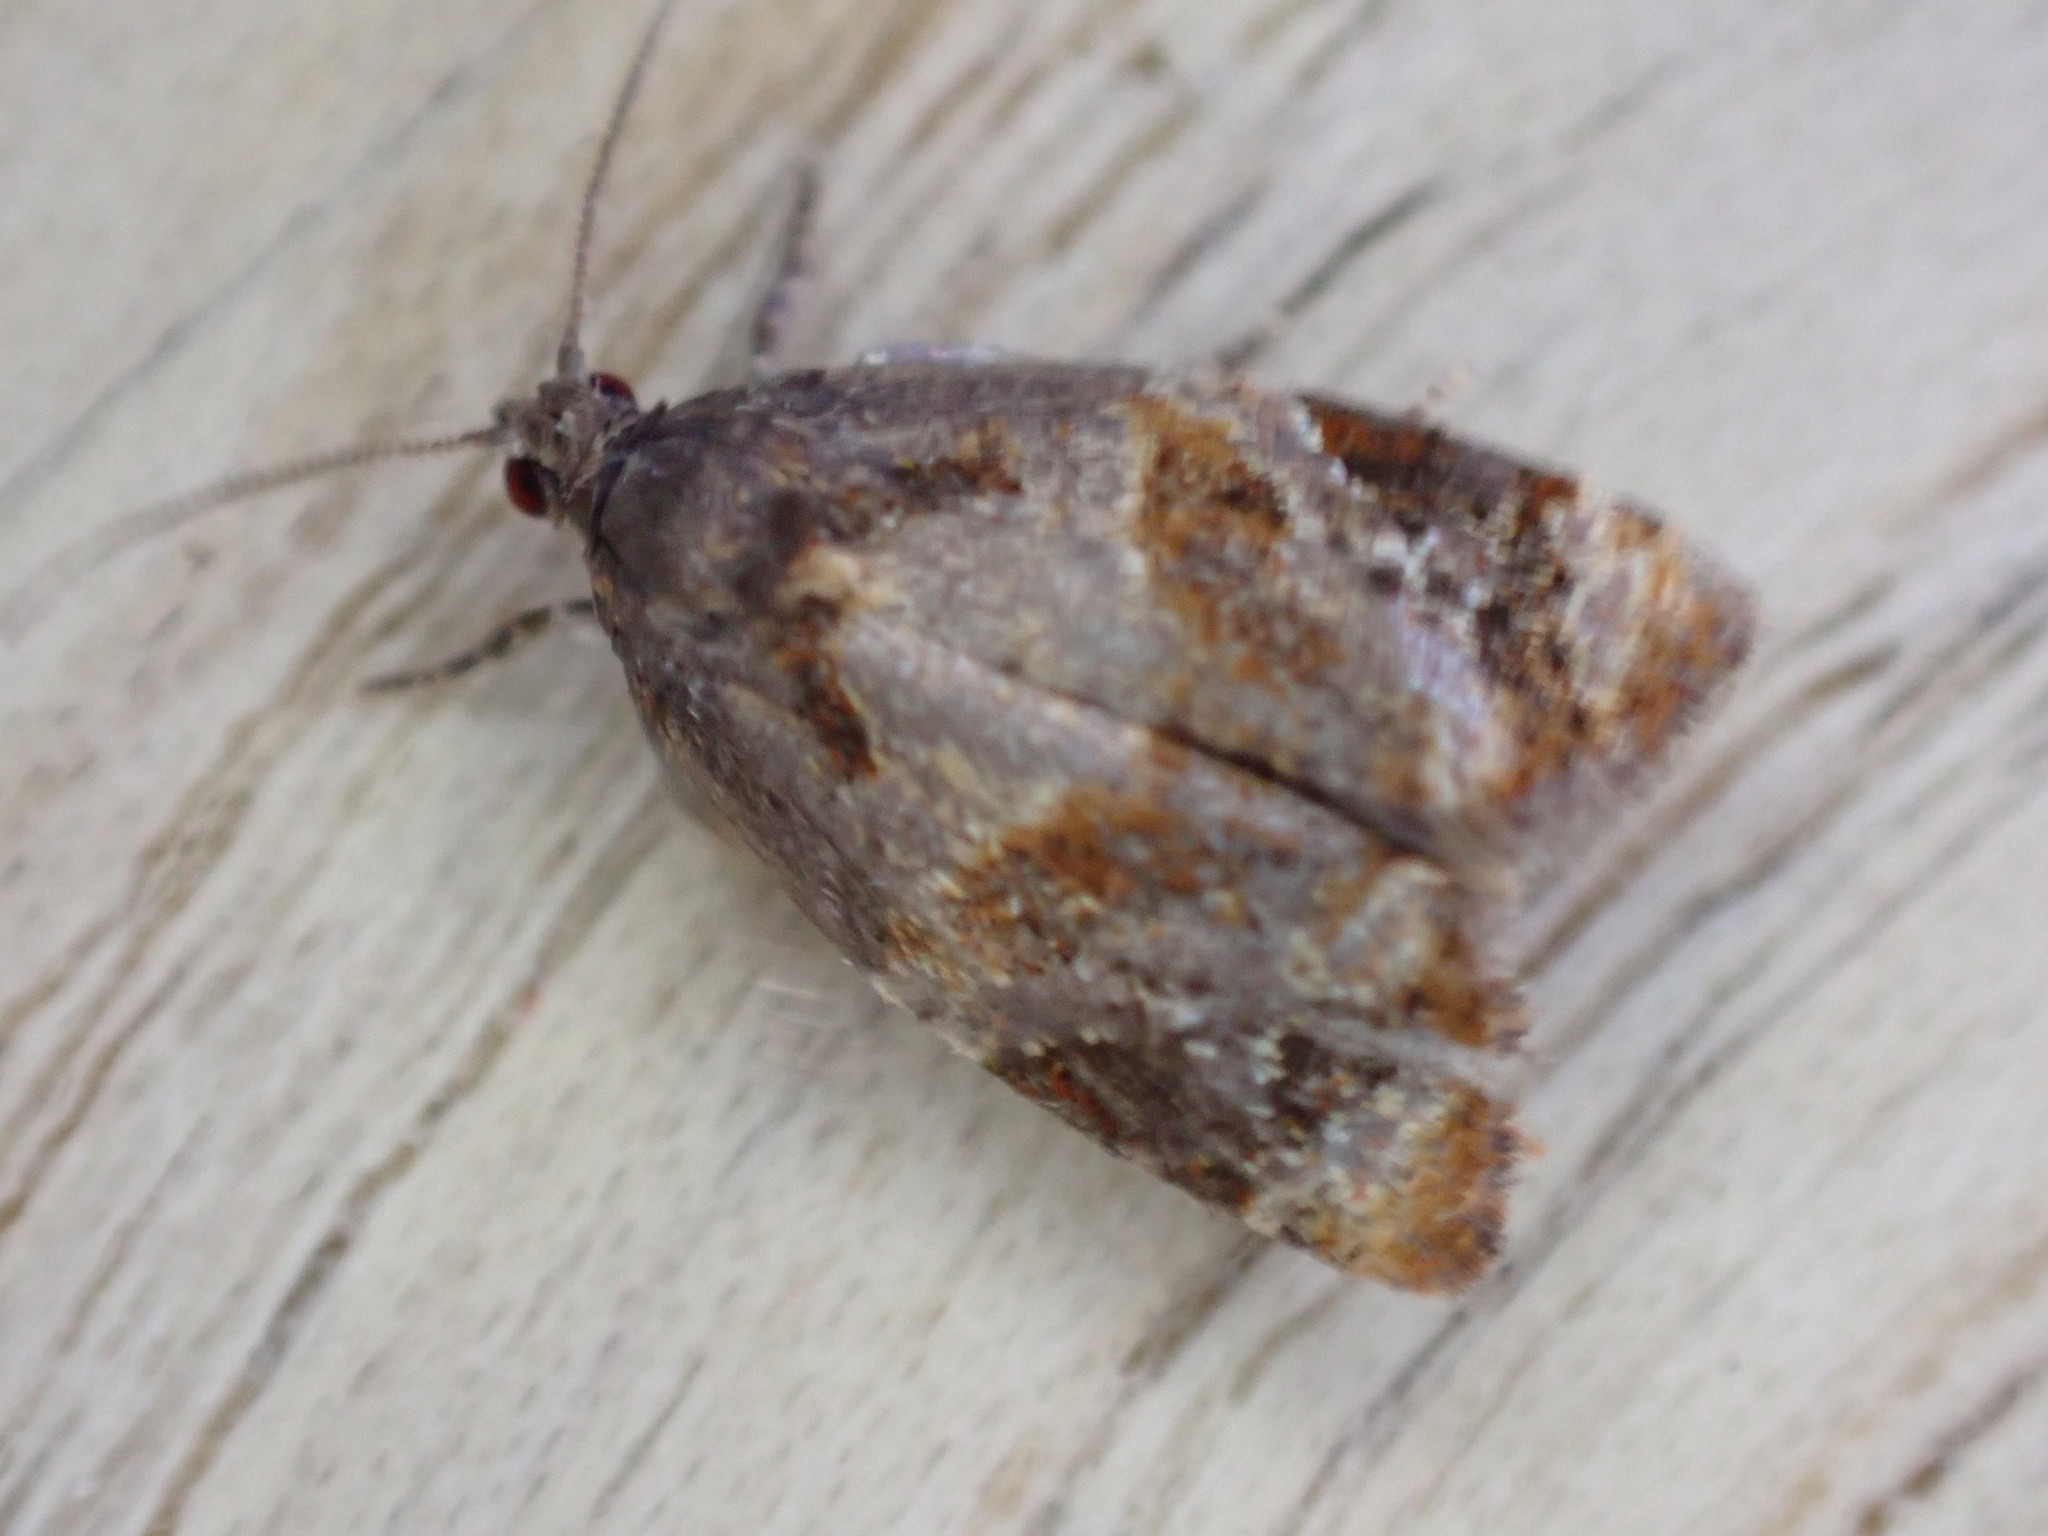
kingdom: Animalia
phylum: Arthropoda
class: Insecta
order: Lepidoptera
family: Tortricidae
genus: Ditula
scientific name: Ditula angustiorana
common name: Red-barred tortrix
